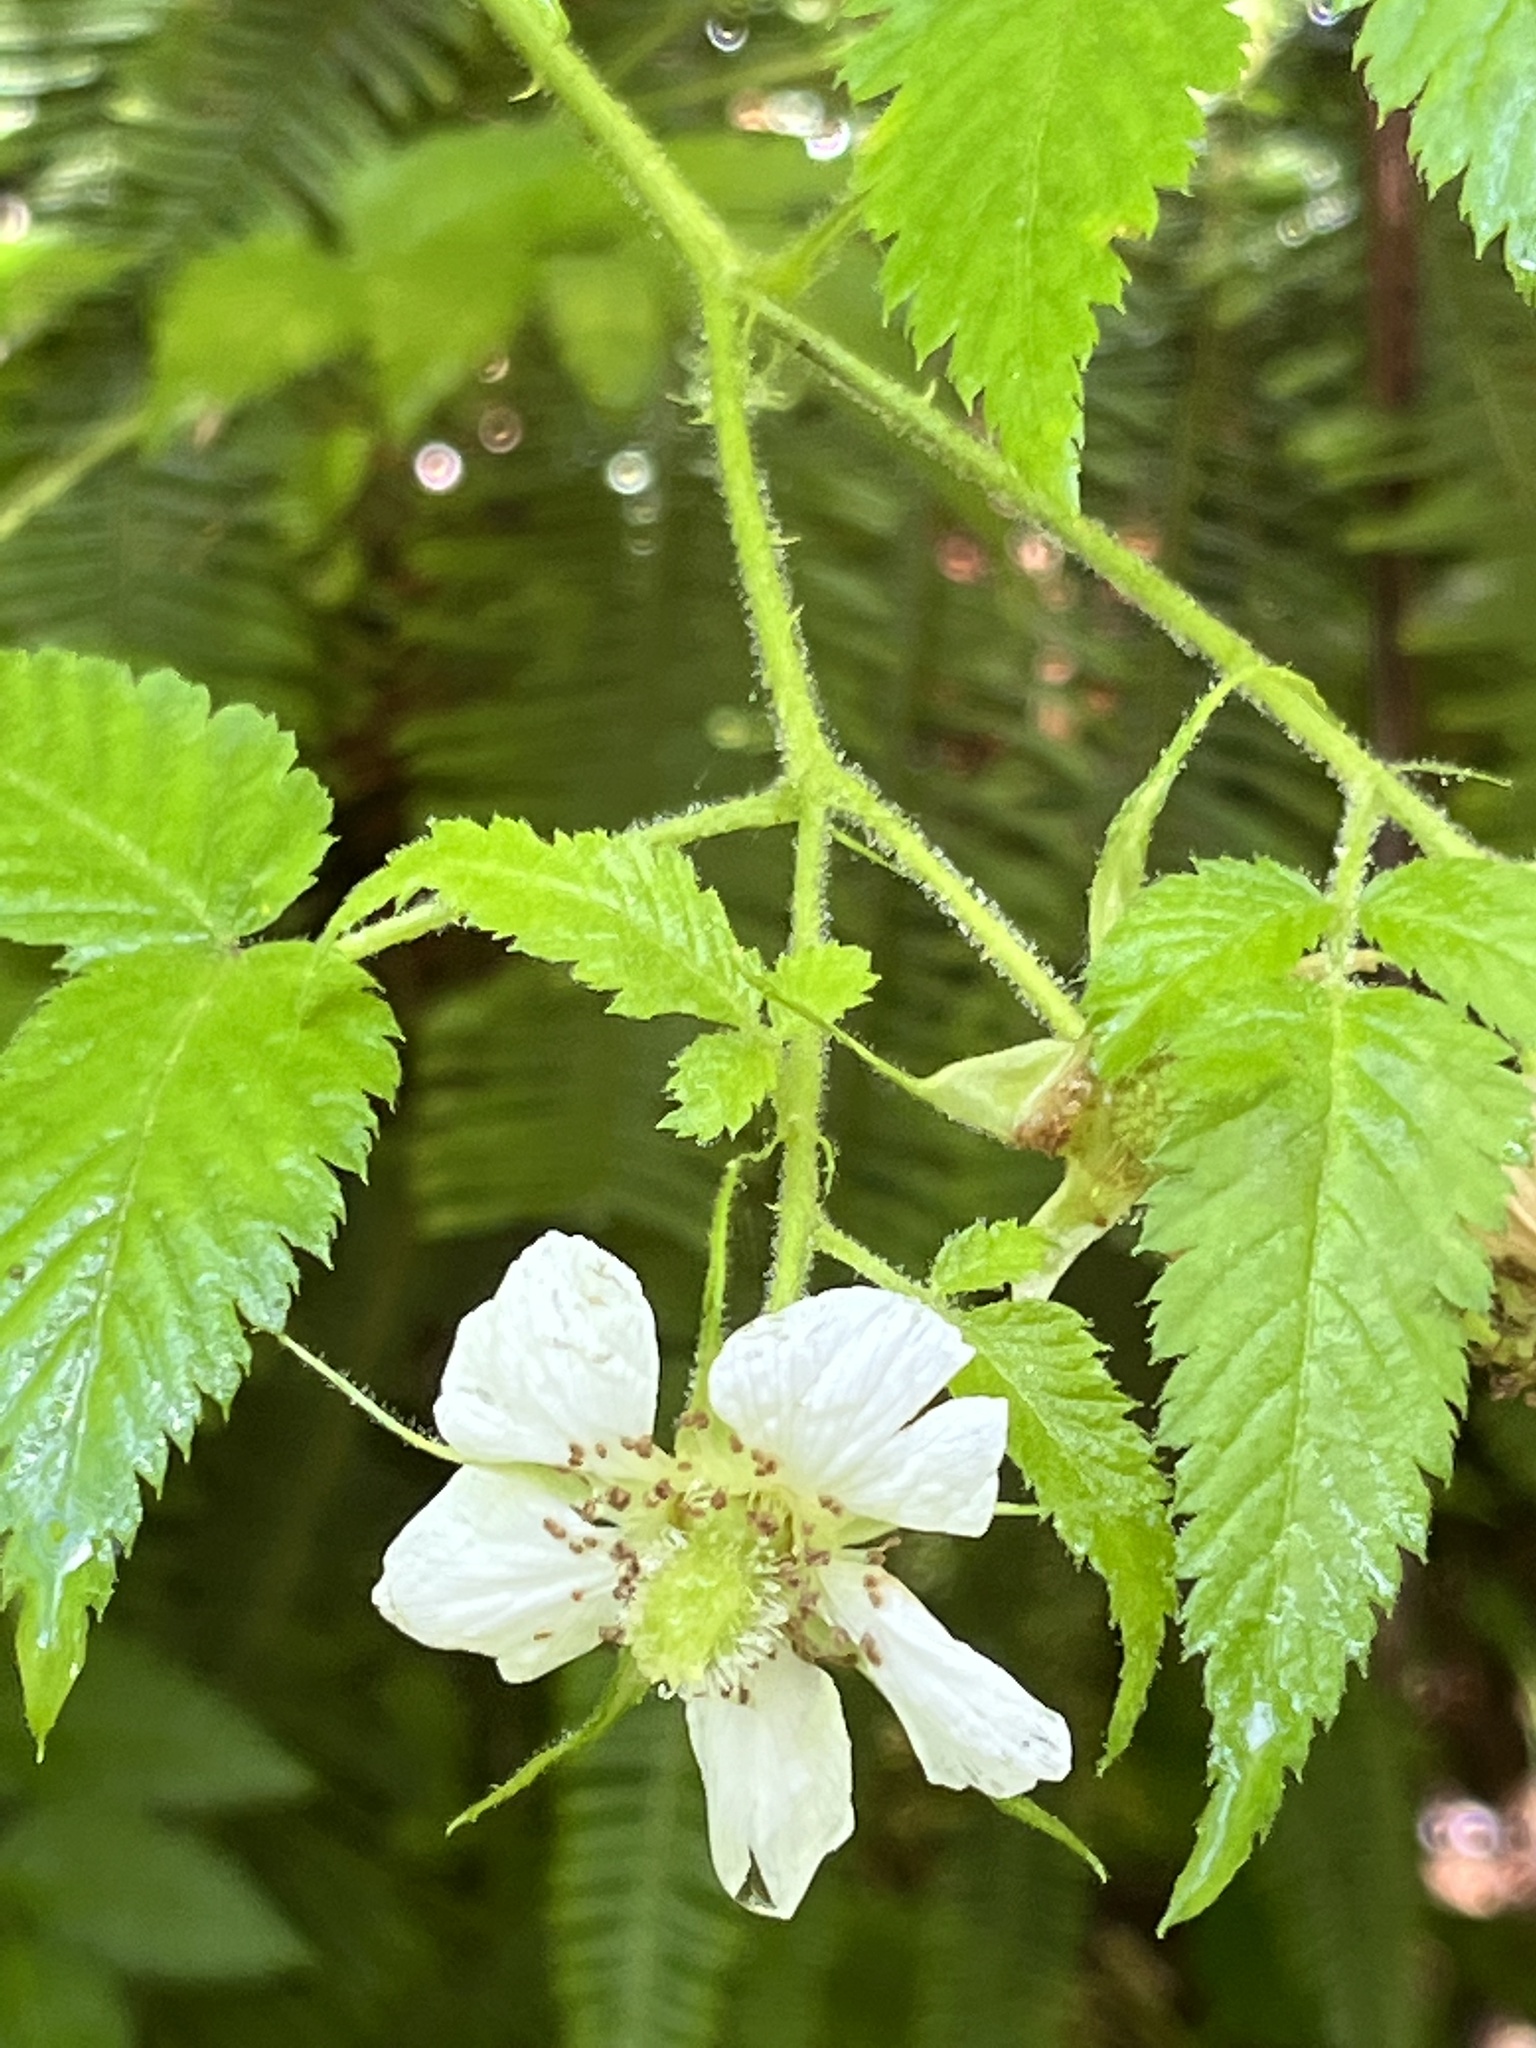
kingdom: Plantae
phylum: Tracheophyta
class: Magnoliopsida
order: Rosales
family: Rosaceae
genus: Rubus
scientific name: Rubus rosifolius
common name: Roseleaf raspberry
